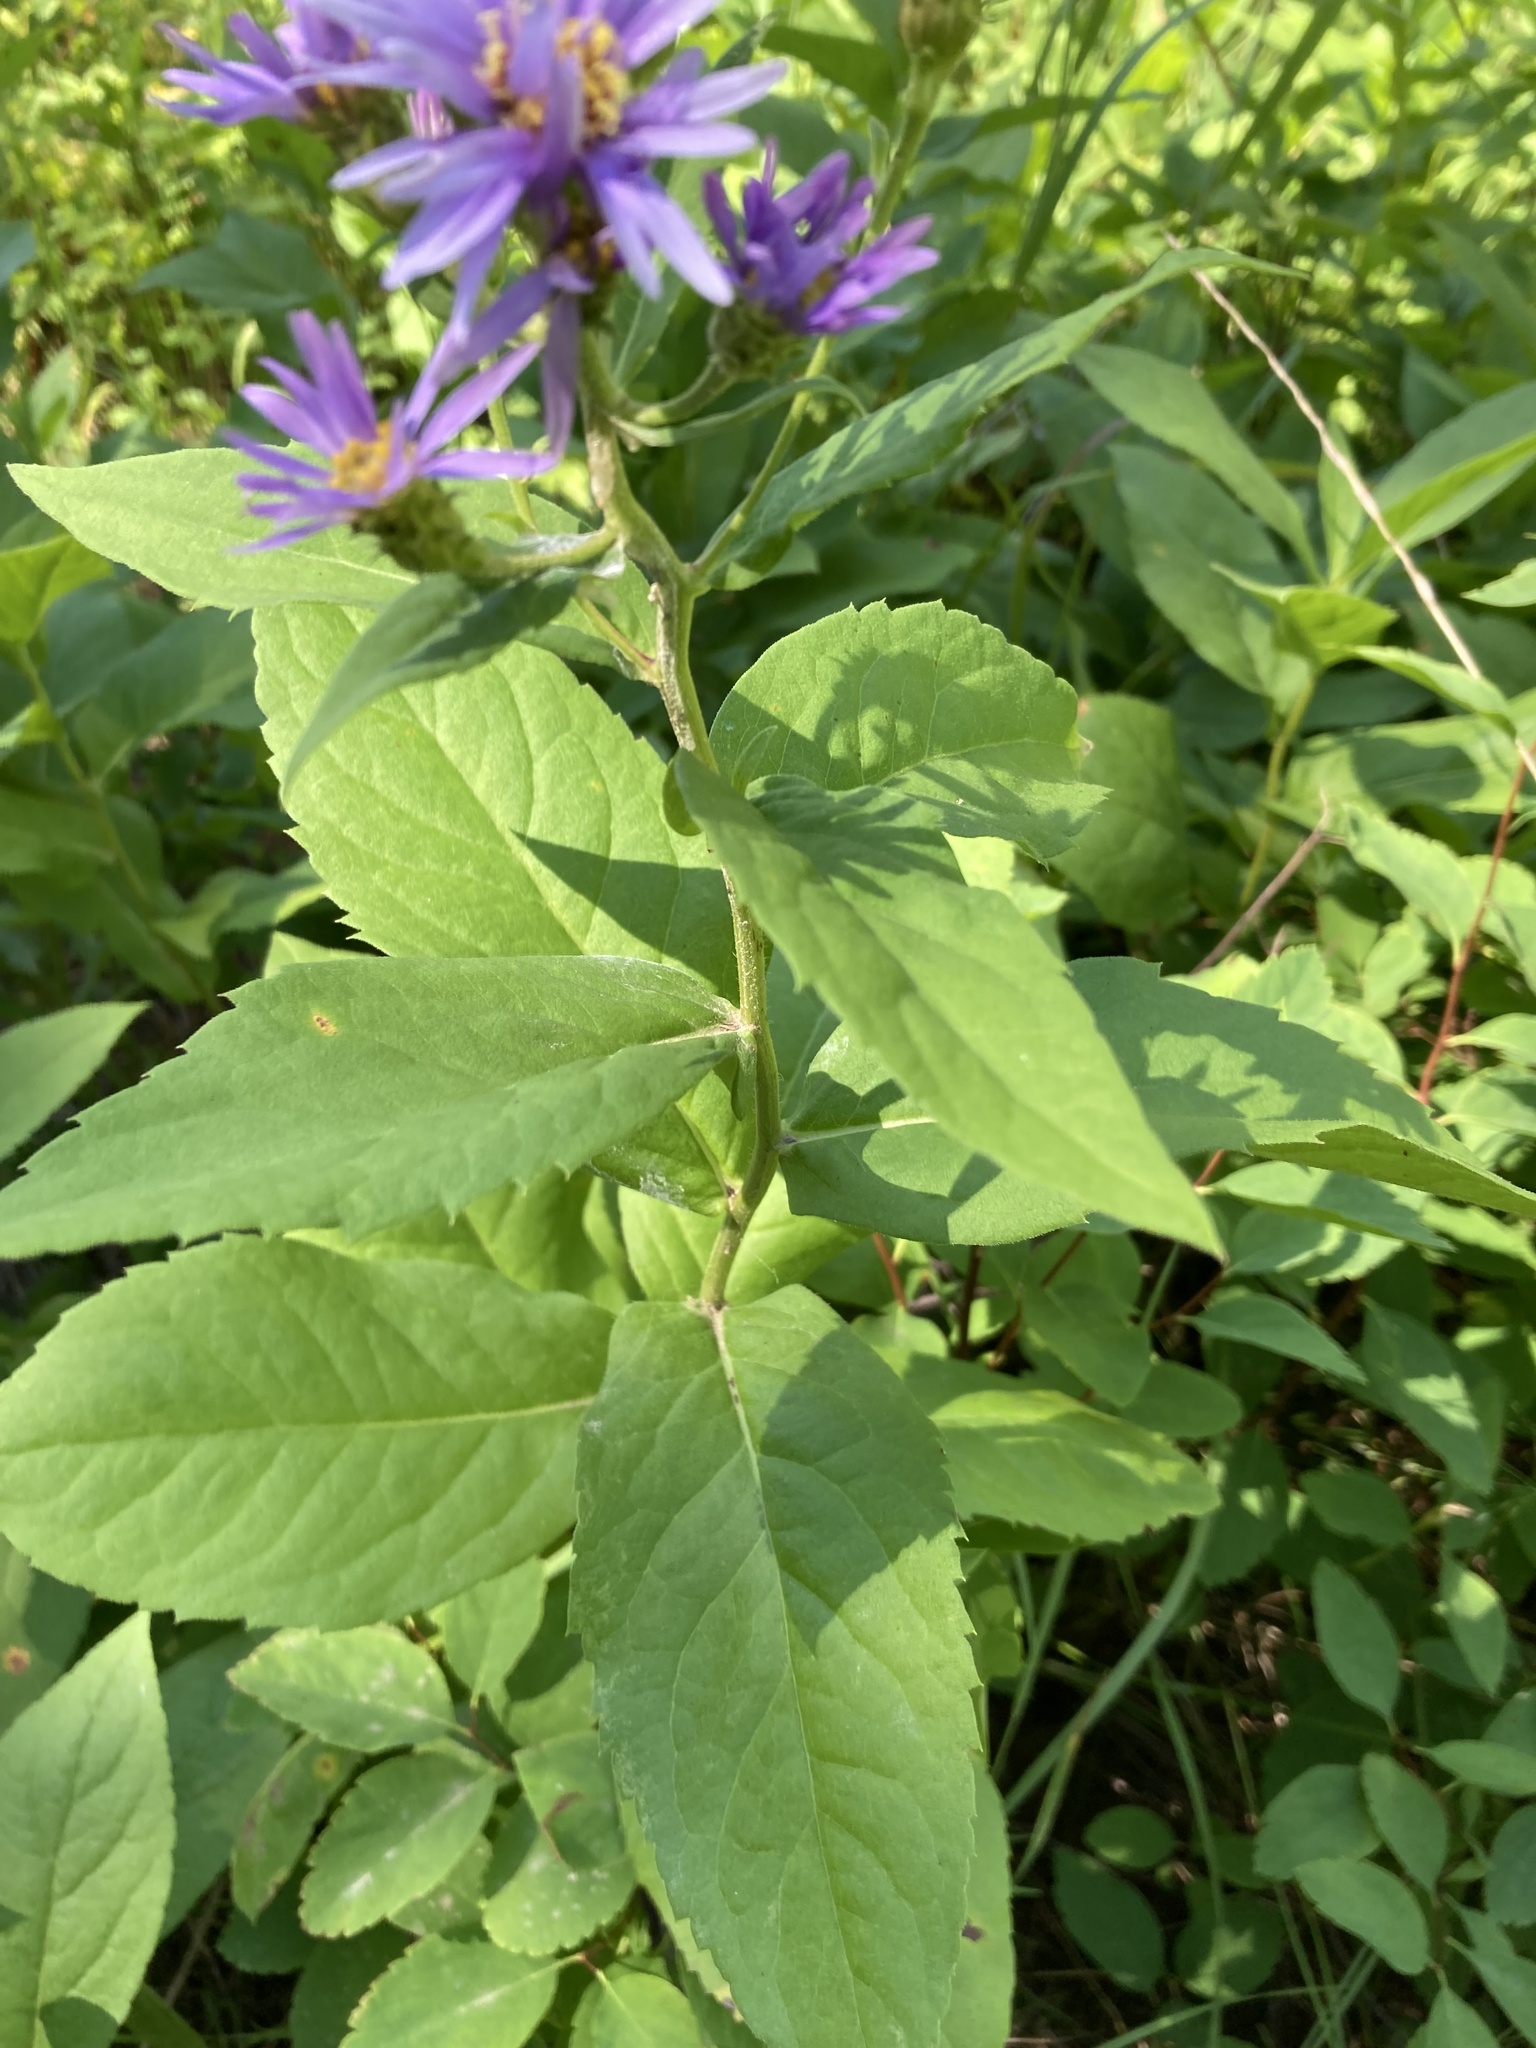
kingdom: Plantae
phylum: Tracheophyta
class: Magnoliopsida
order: Asterales
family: Asteraceae
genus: Eurybia
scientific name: Eurybia conspicua
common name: Showy aster
